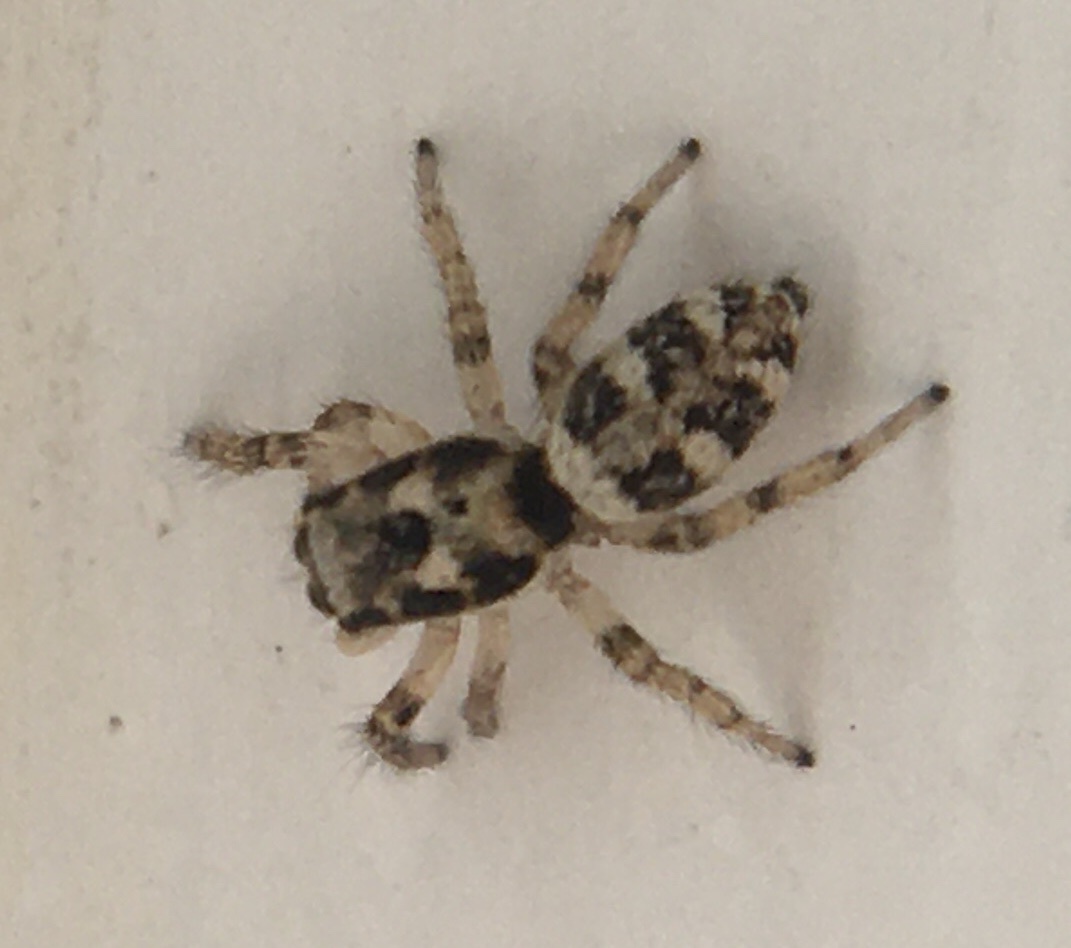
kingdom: Animalia
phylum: Arthropoda
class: Arachnida
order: Araneae
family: Salticidae
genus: Salticus
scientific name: Salticus scenicus
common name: Zebra jumper
